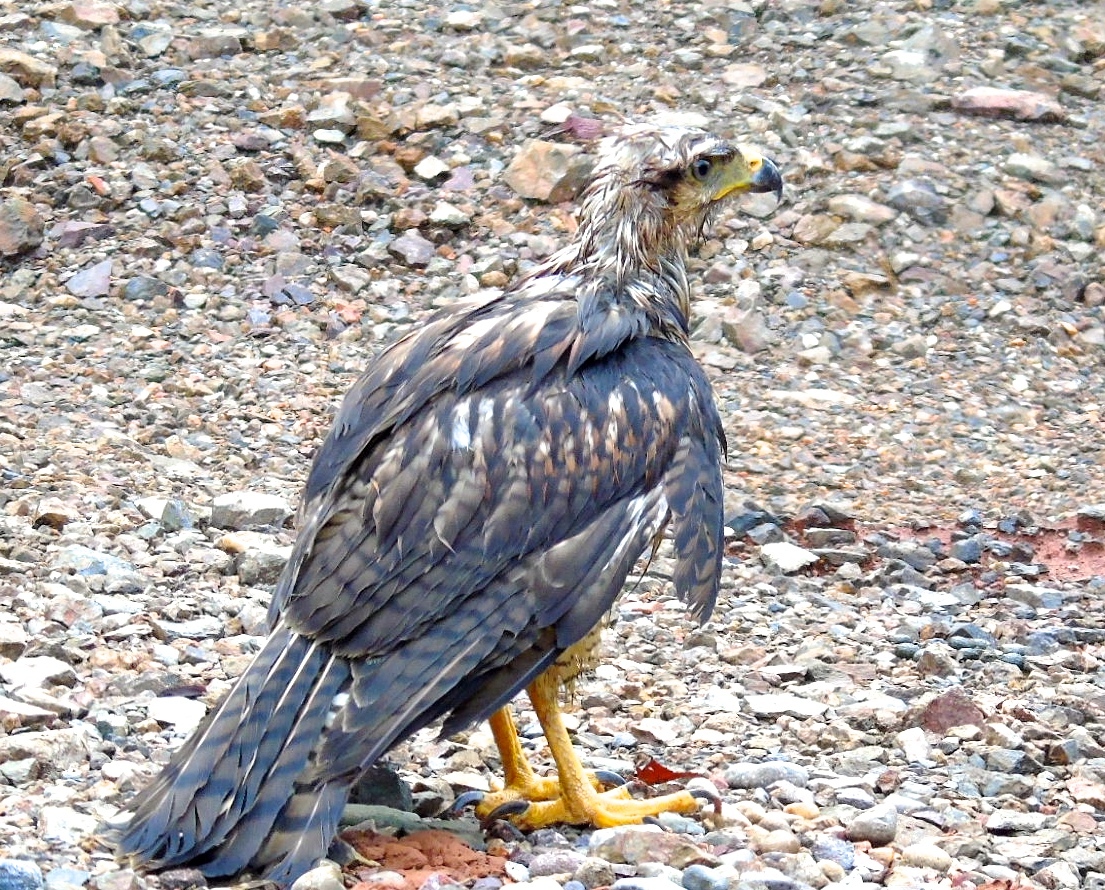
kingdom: Animalia
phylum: Chordata
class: Aves
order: Accipitriformes
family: Accipitridae
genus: Buteogallus
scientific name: Buteogallus anthracinus
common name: Common black hawk
